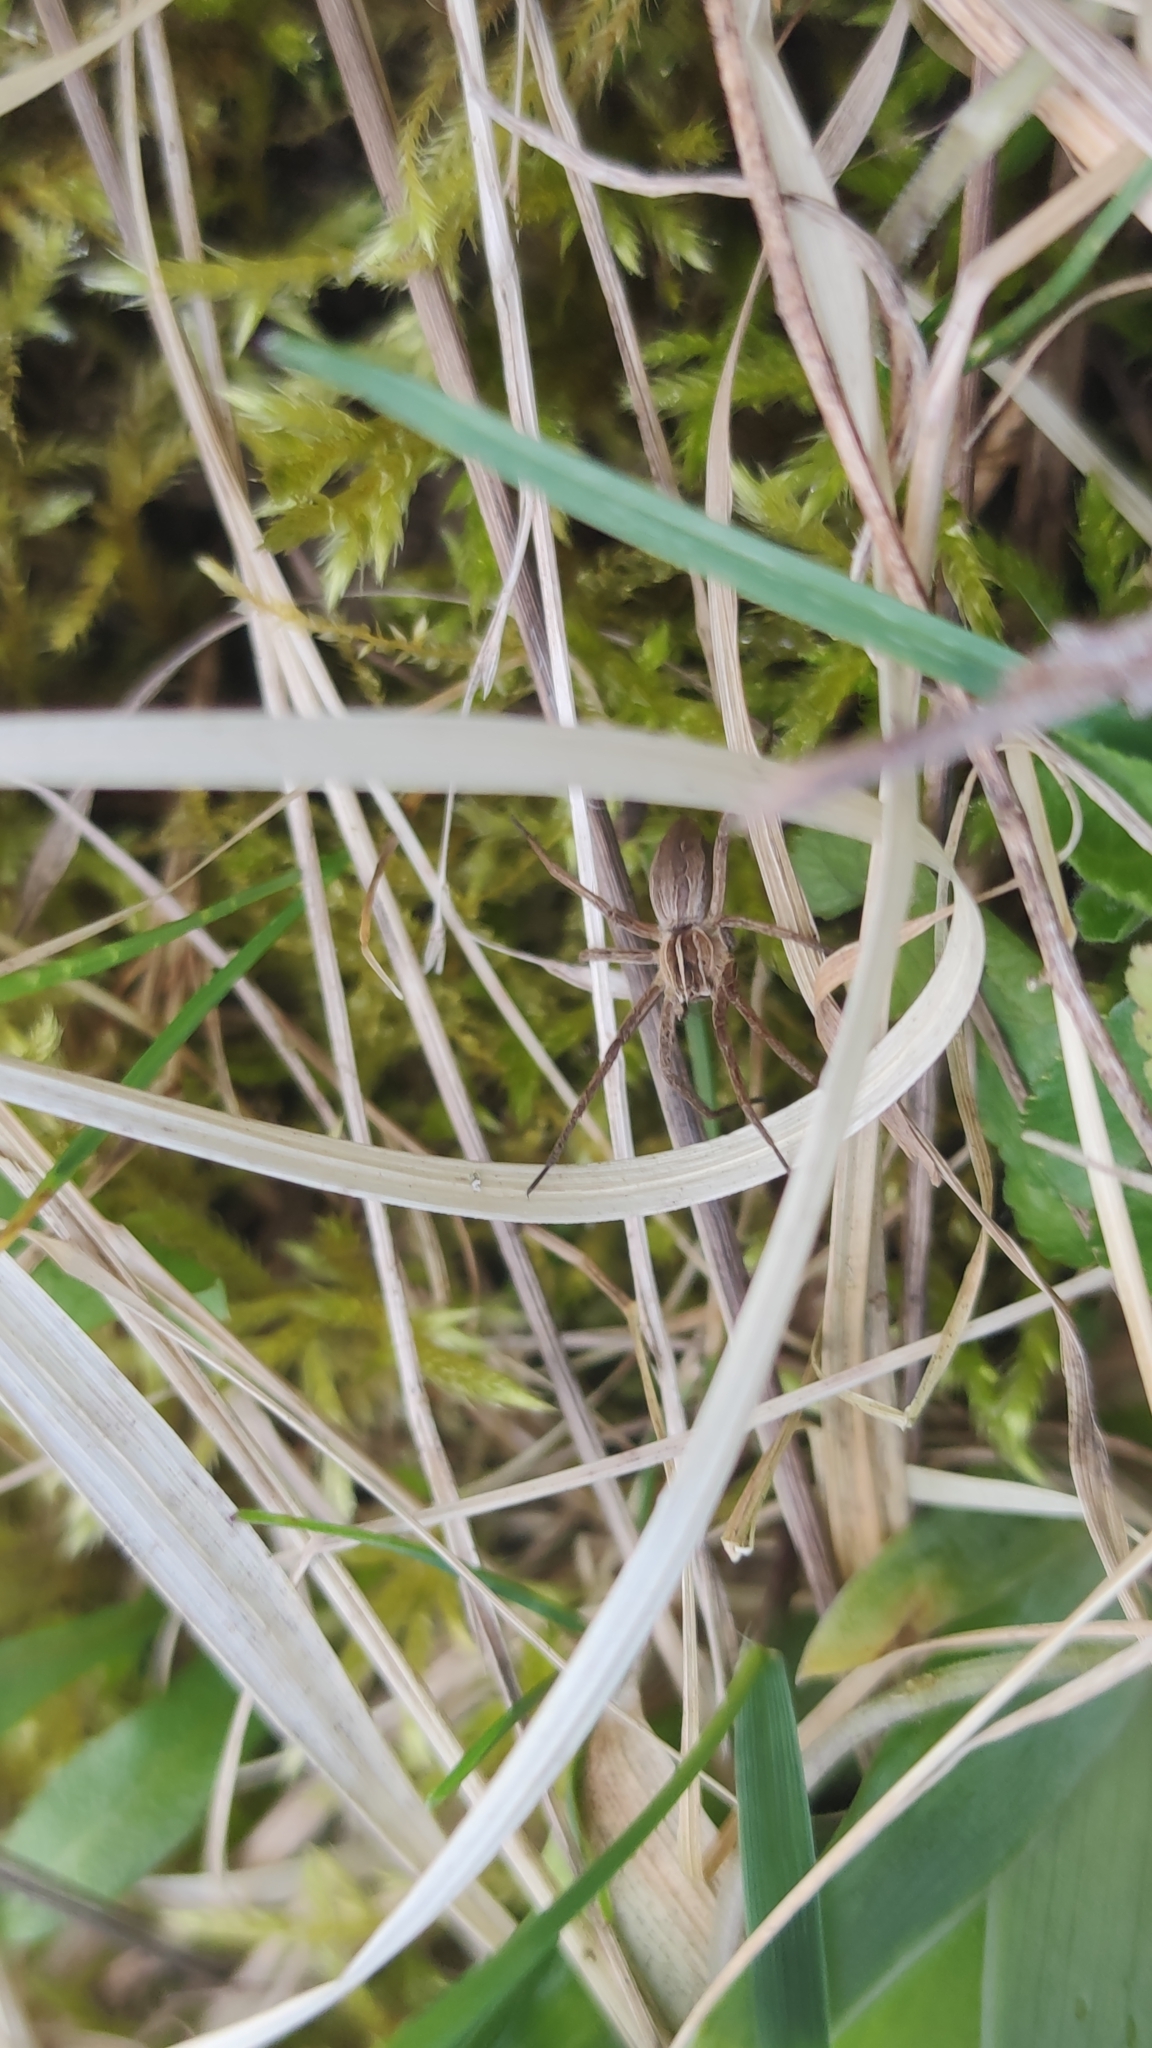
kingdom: Animalia
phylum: Arthropoda
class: Arachnida
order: Araneae
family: Pisauridae
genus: Pisaura
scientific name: Pisaura mirabilis
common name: Tent spider
